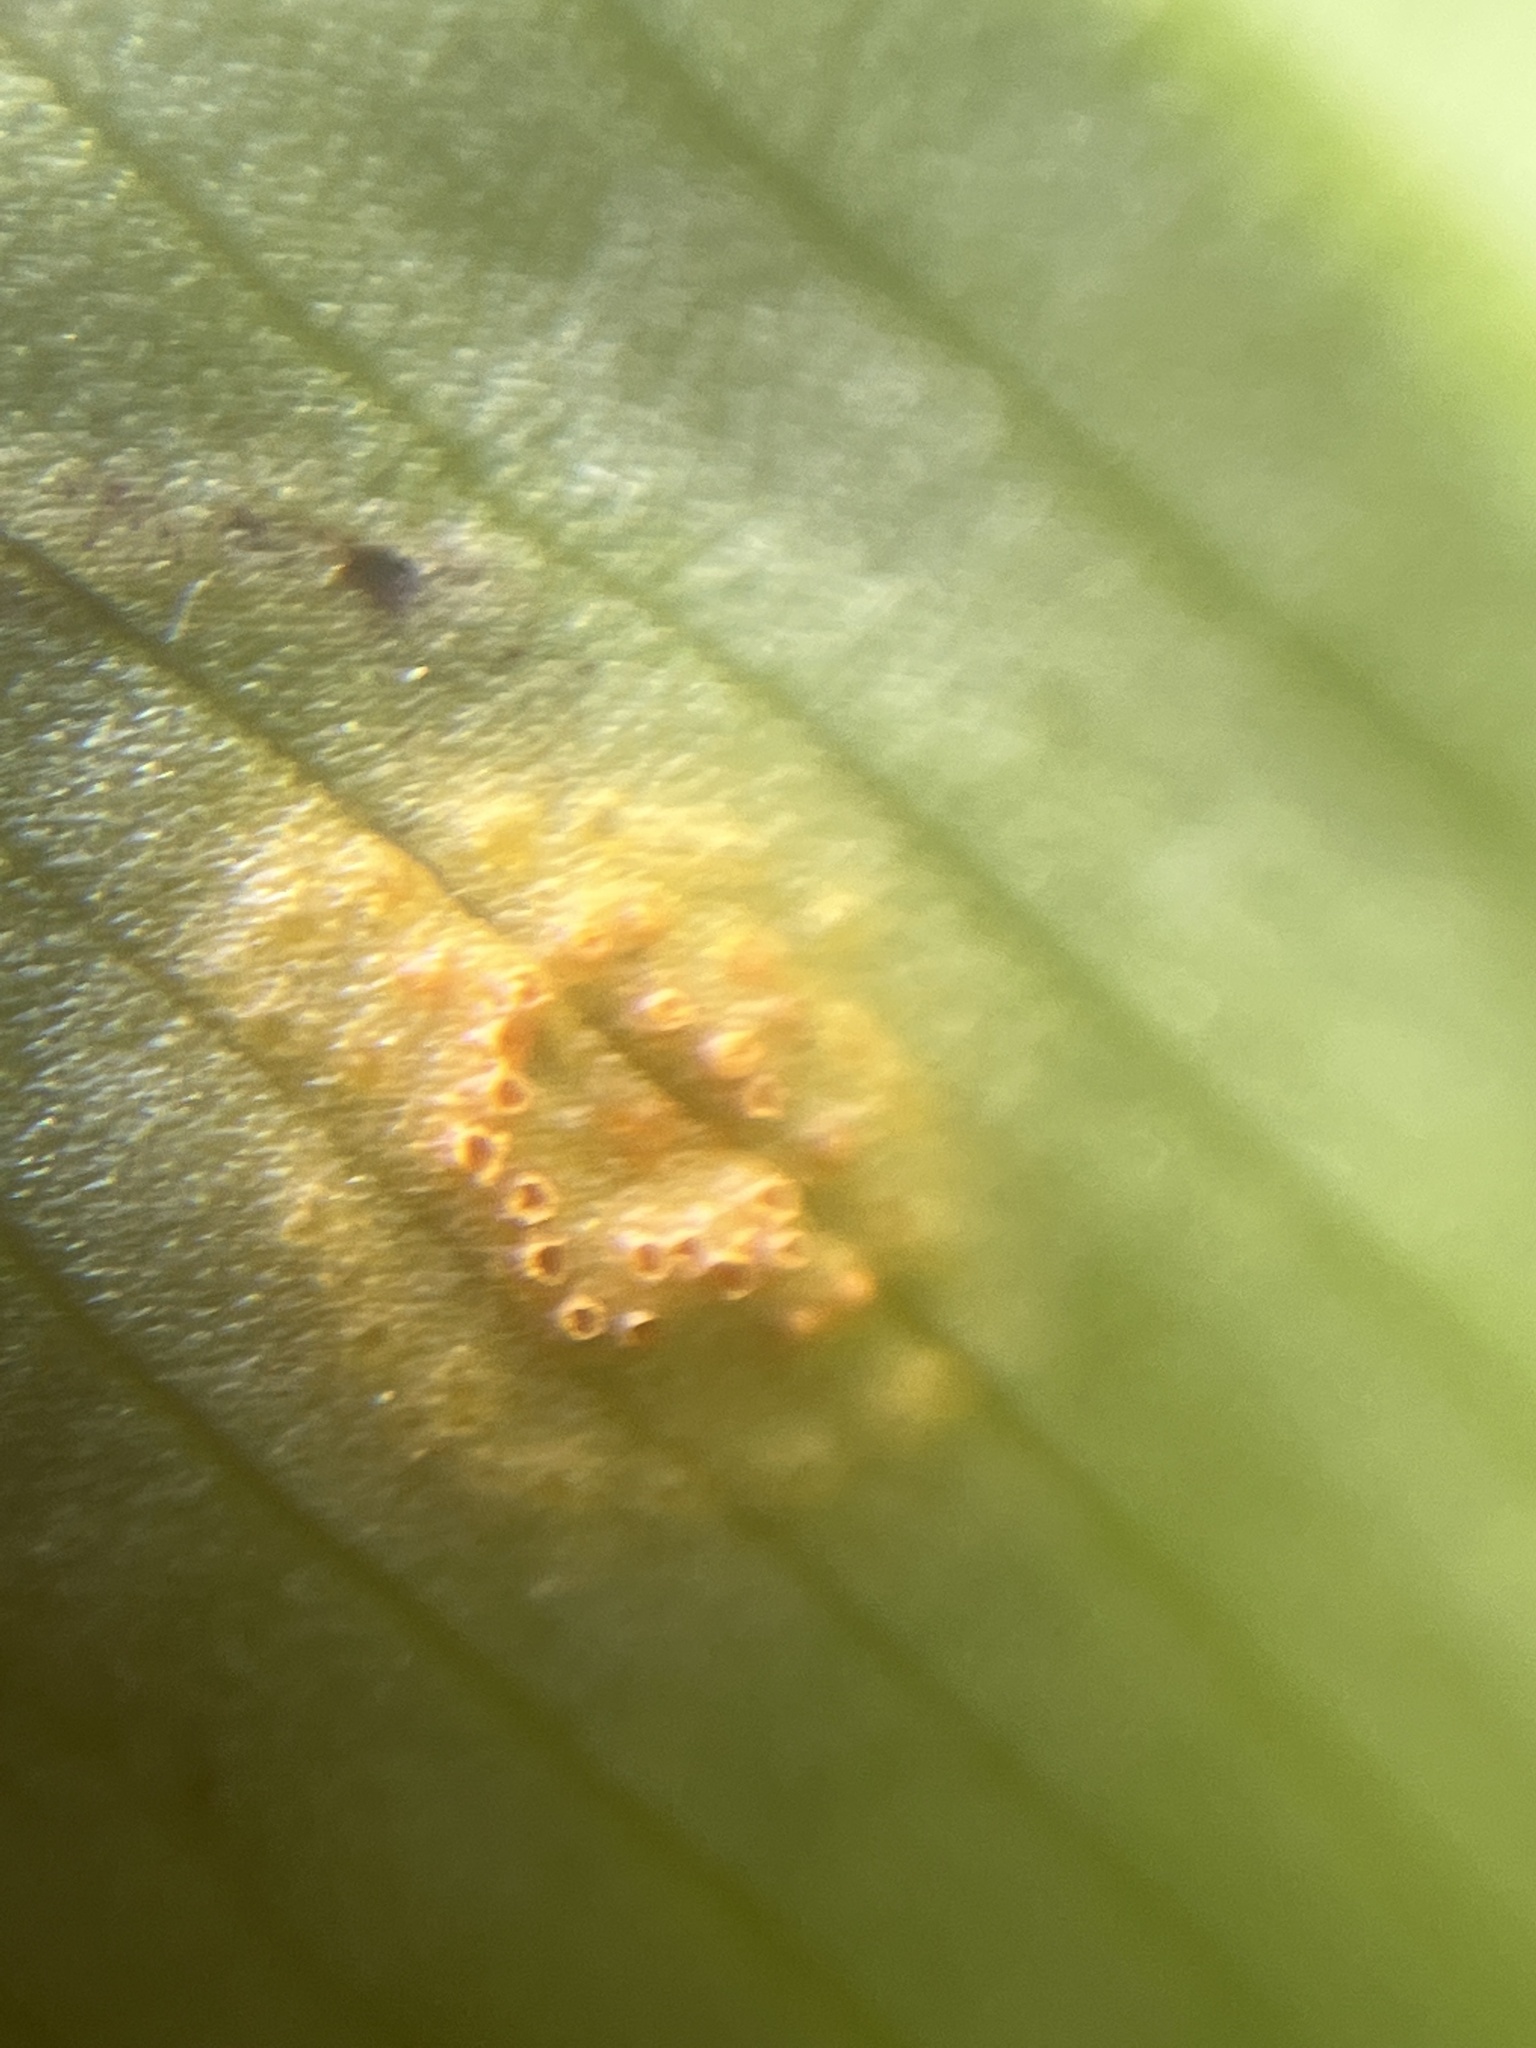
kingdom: Fungi
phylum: Basidiomycota
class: Pucciniomycetes
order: Pucciniales
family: Pucciniaceae
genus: Puccinia
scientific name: Puccinia sessilis
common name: Arum rust
